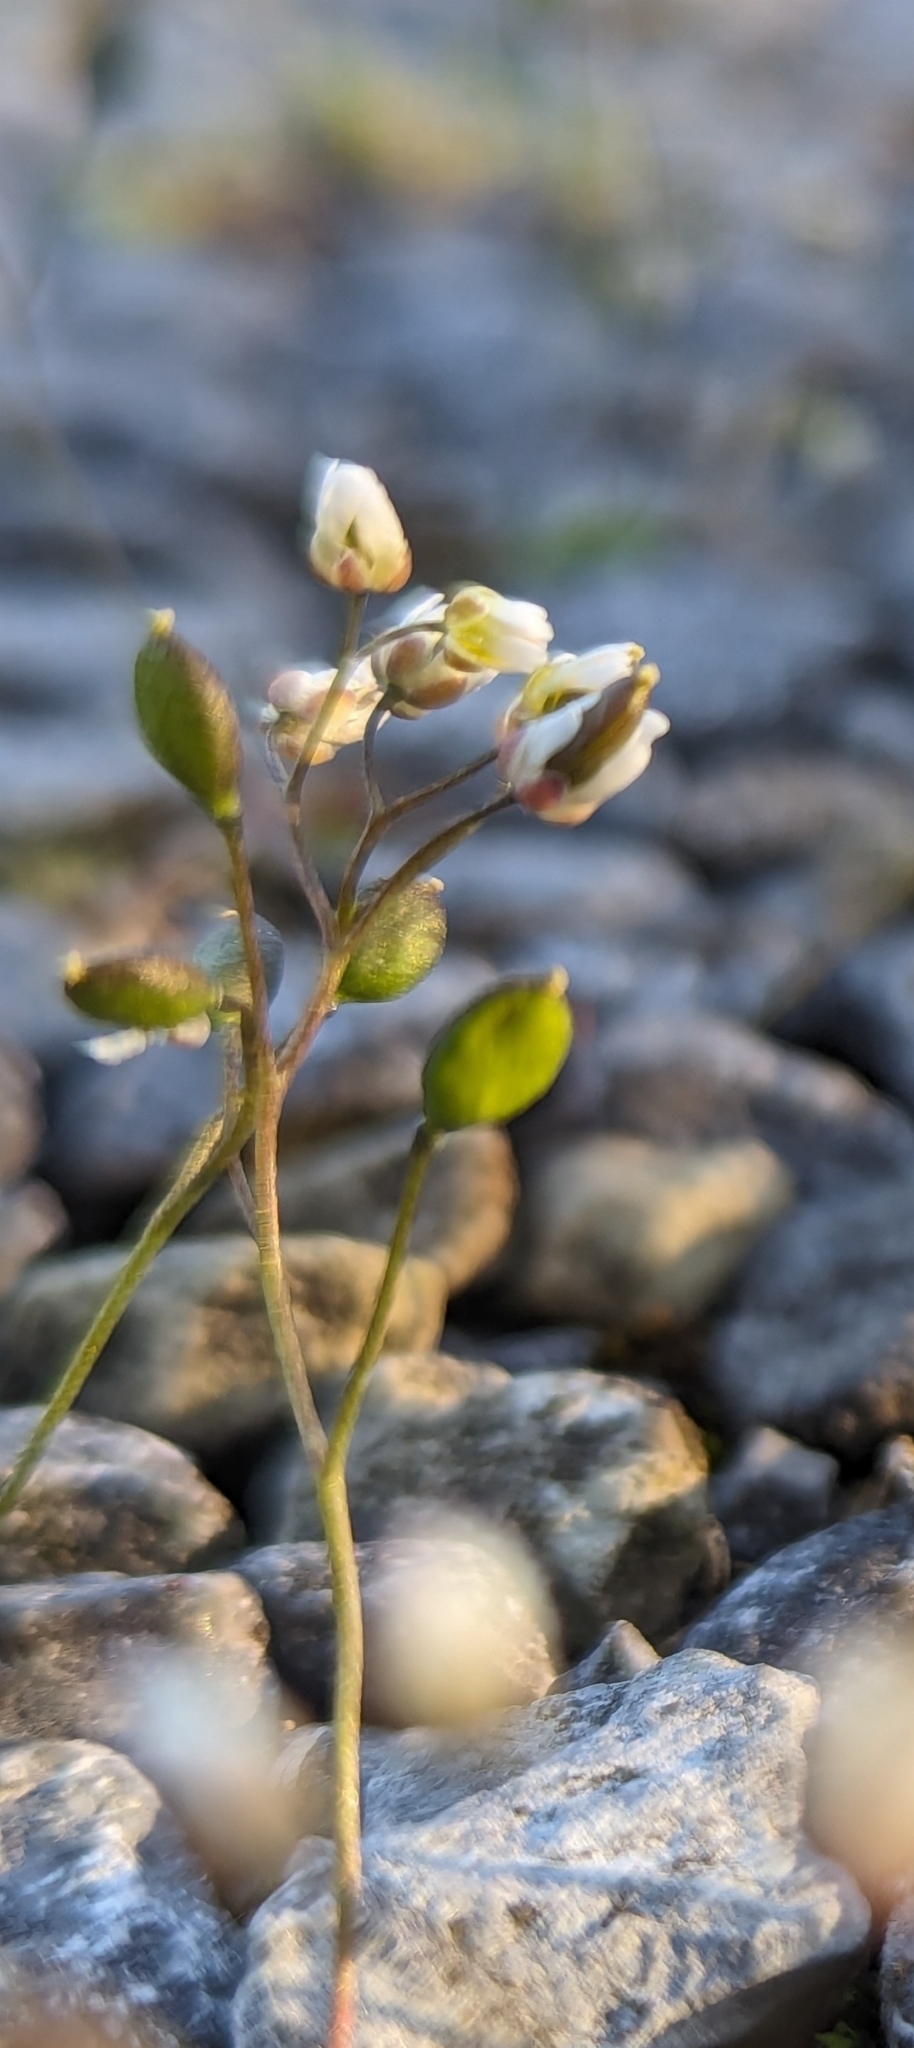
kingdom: Plantae
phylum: Tracheophyta
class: Magnoliopsida
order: Brassicales
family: Brassicaceae
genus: Draba
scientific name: Draba verna
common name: Spring draba
